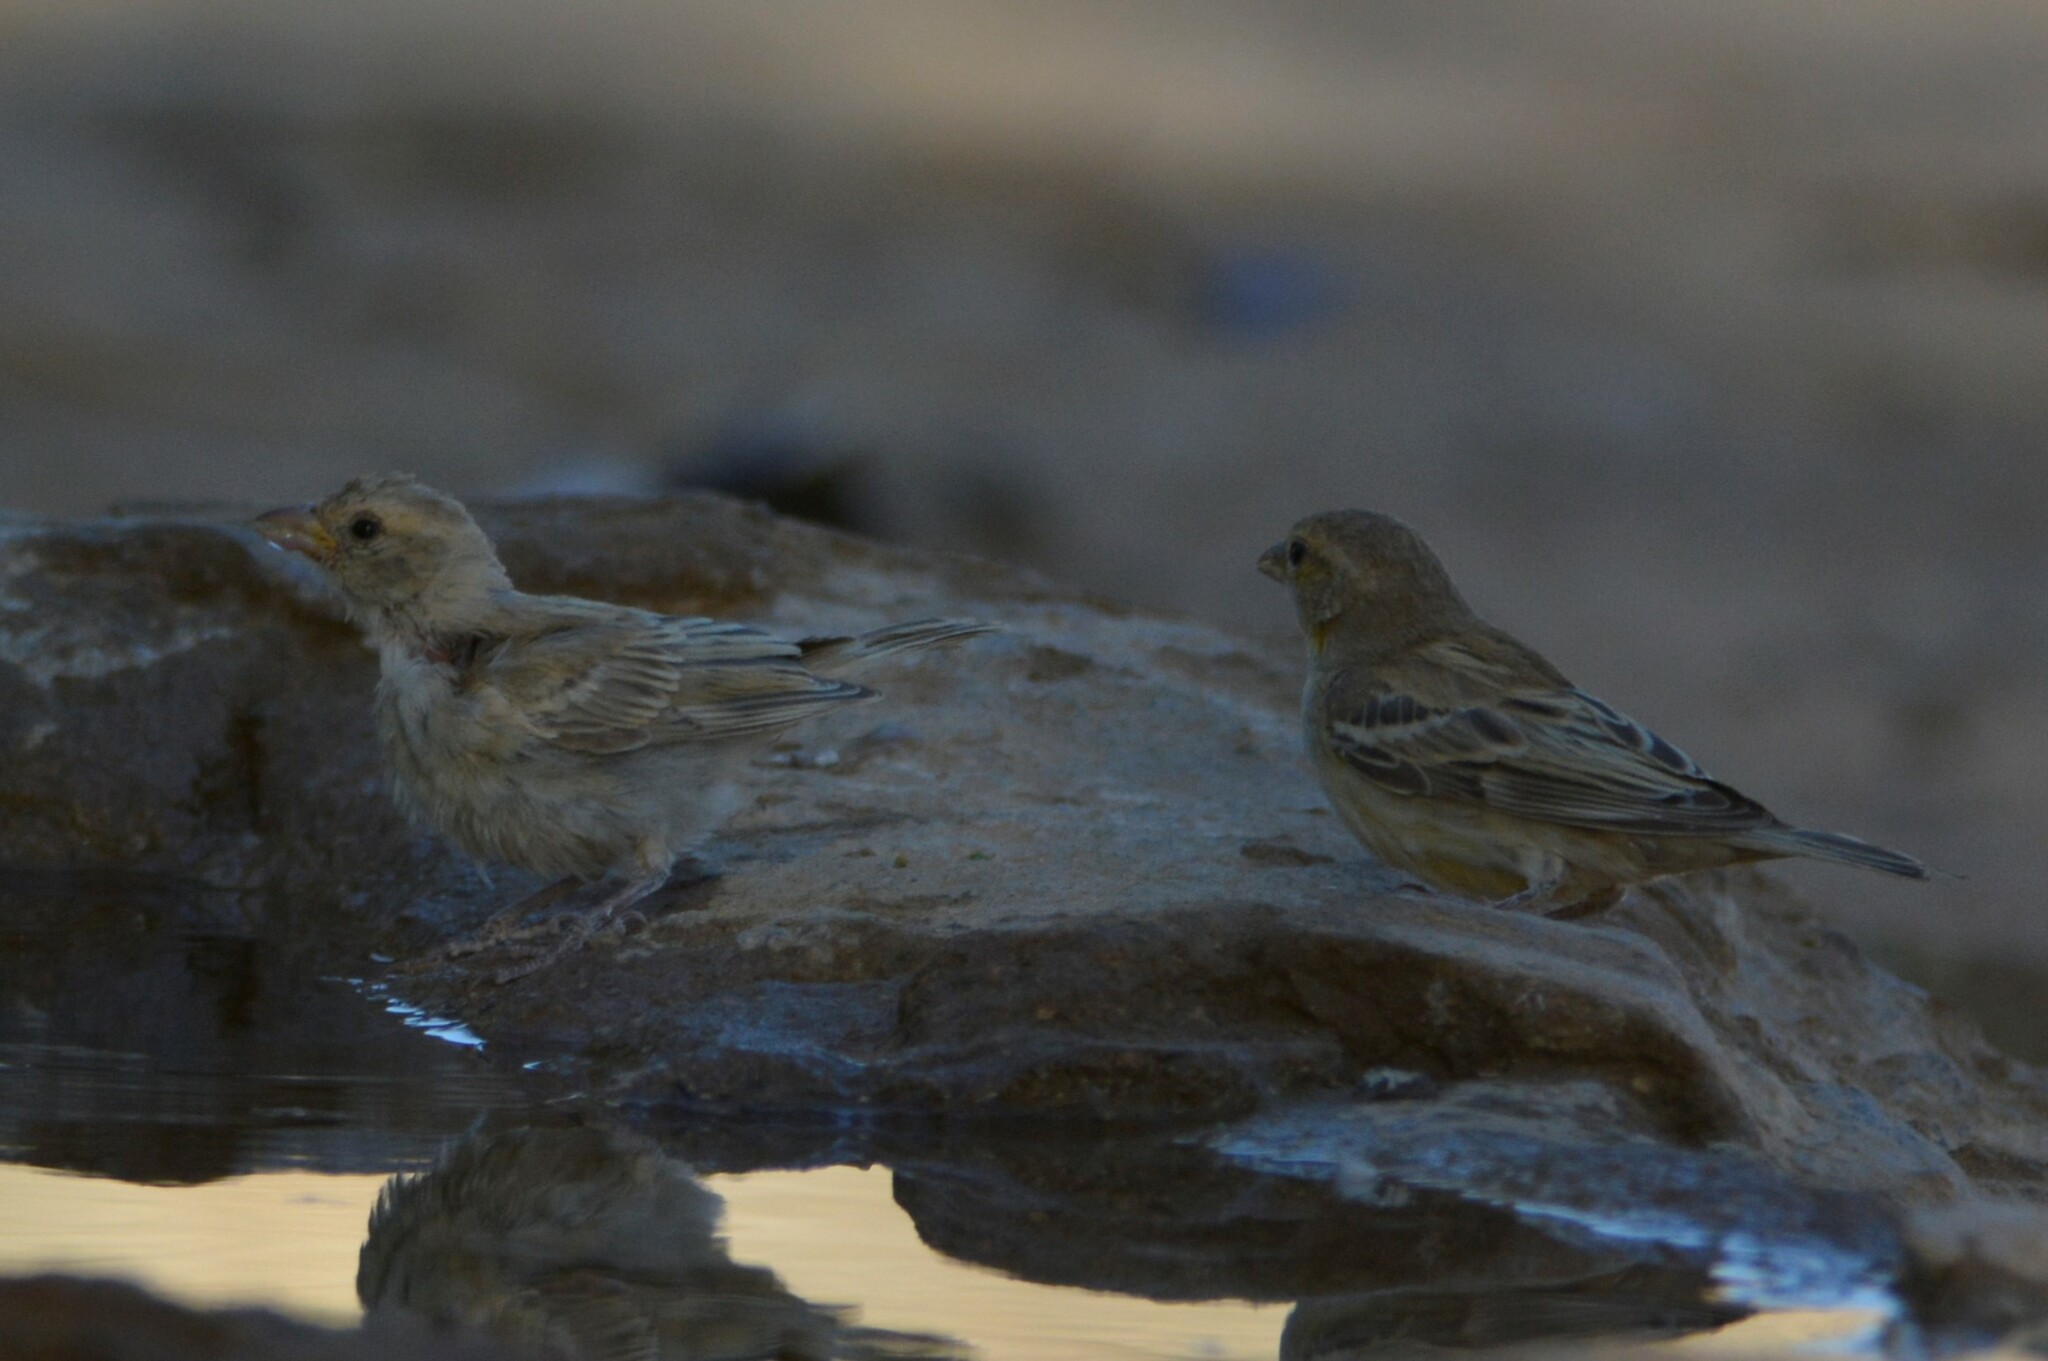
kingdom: Animalia
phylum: Chordata
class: Aves
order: Passeriformes
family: Passeridae
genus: Passer
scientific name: Passer luteus
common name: Sudan golden sparrow
